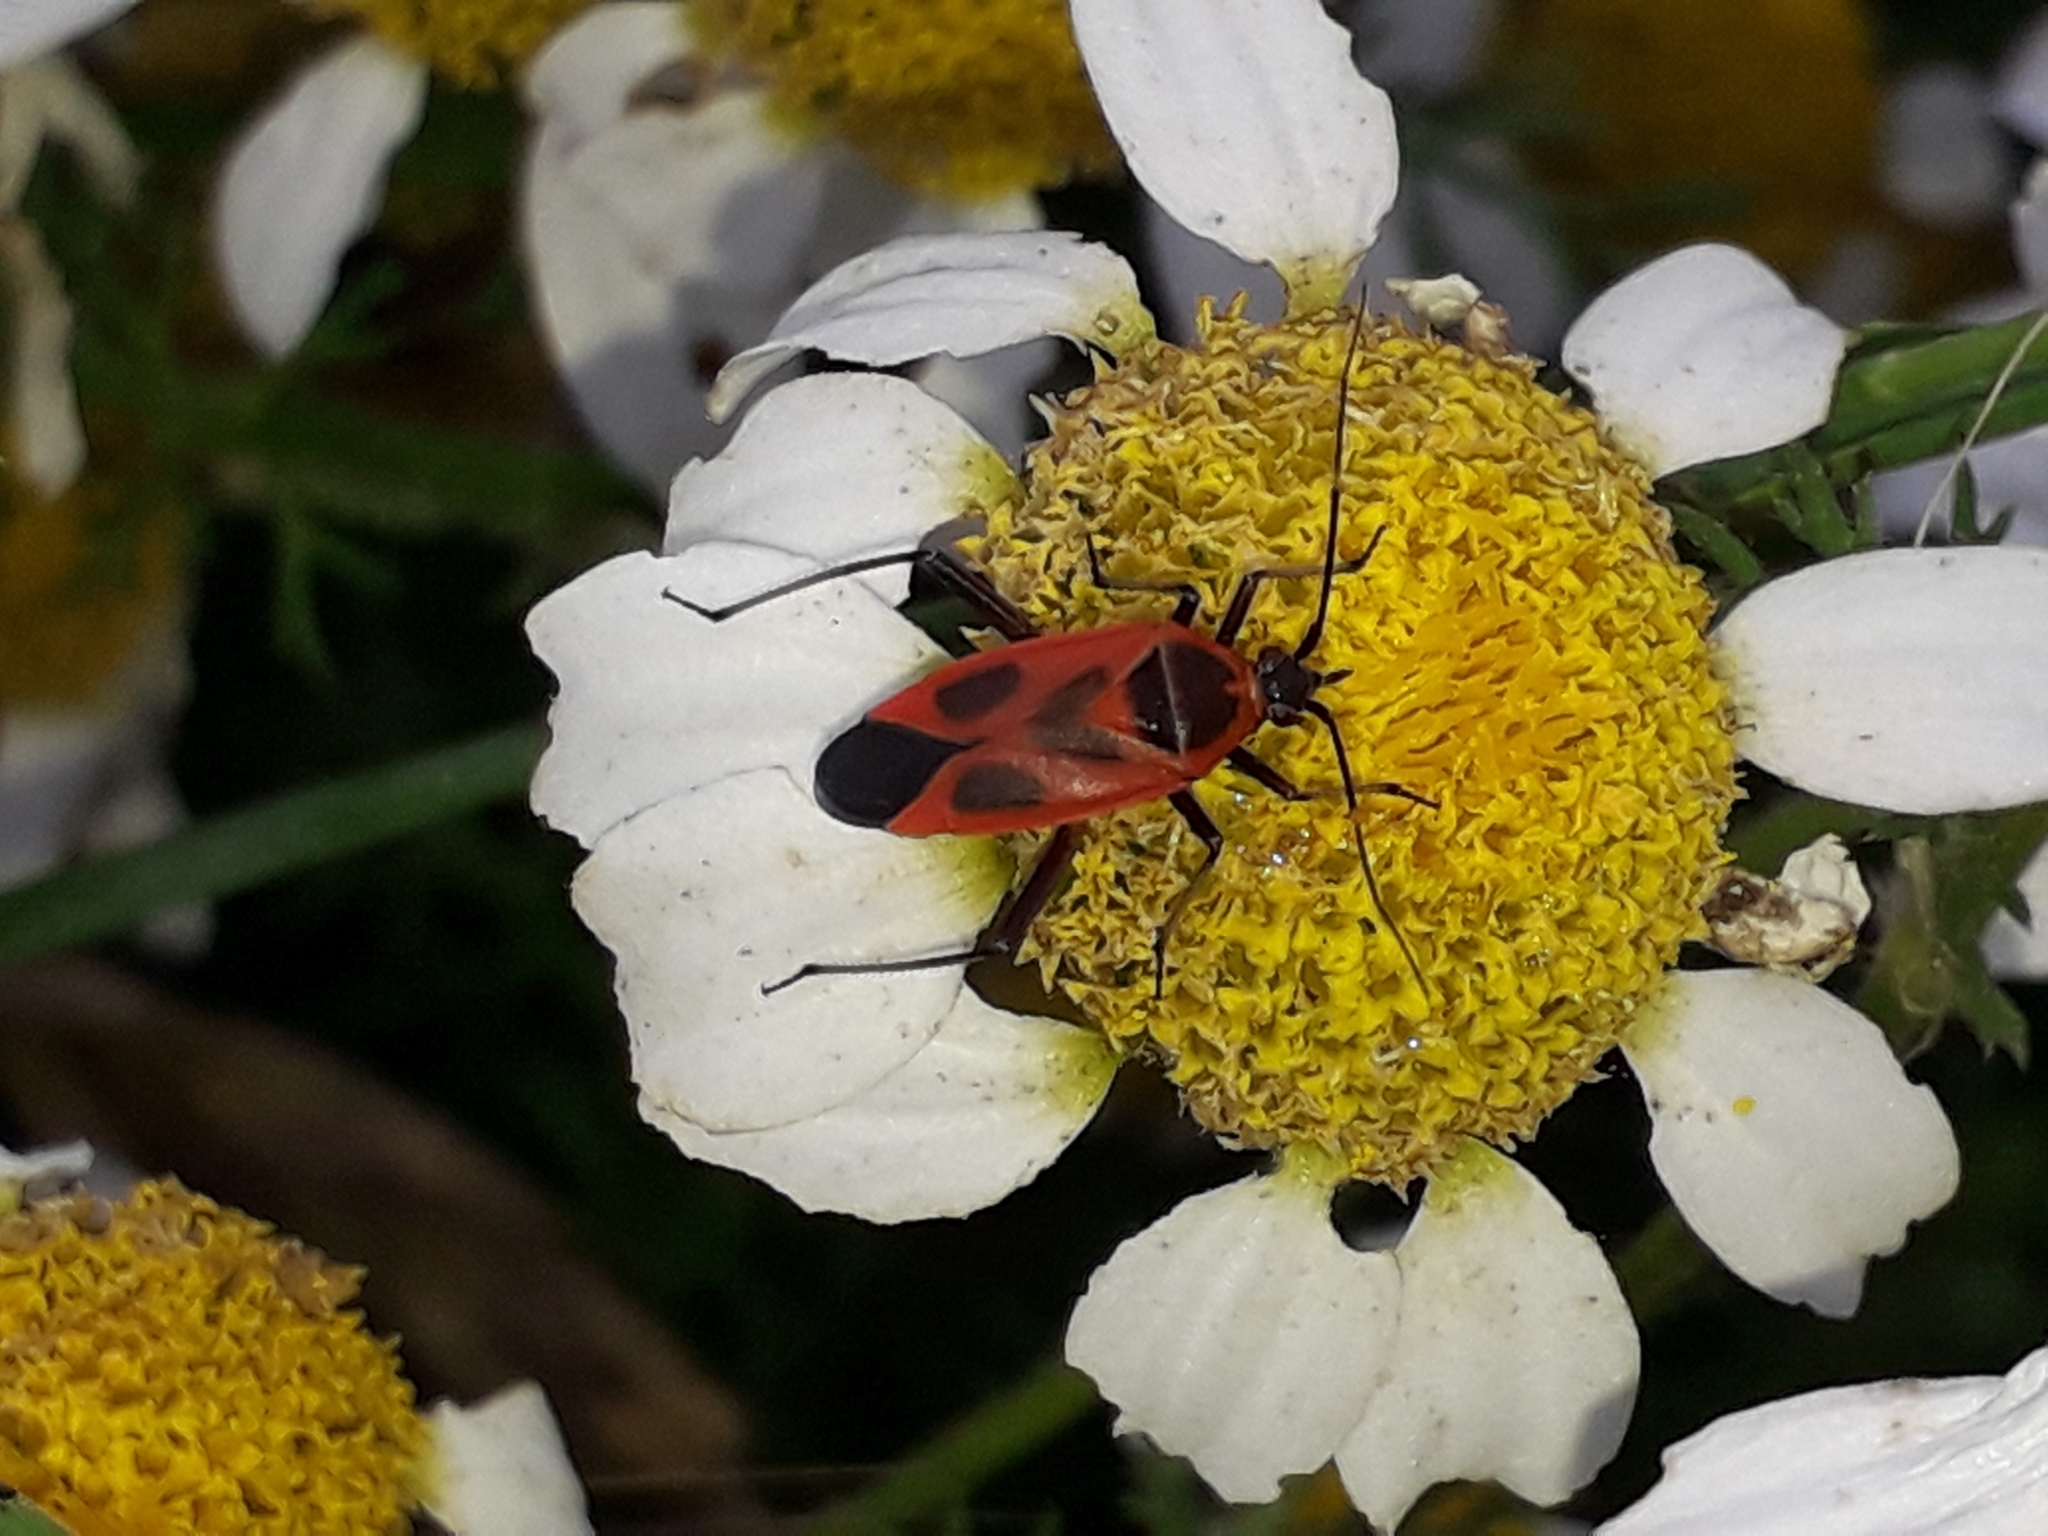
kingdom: Animalia
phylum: Arthropoda
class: Insecta
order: Hemiptera
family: Miridae
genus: Calocoris
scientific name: Calocoris nemoralis
